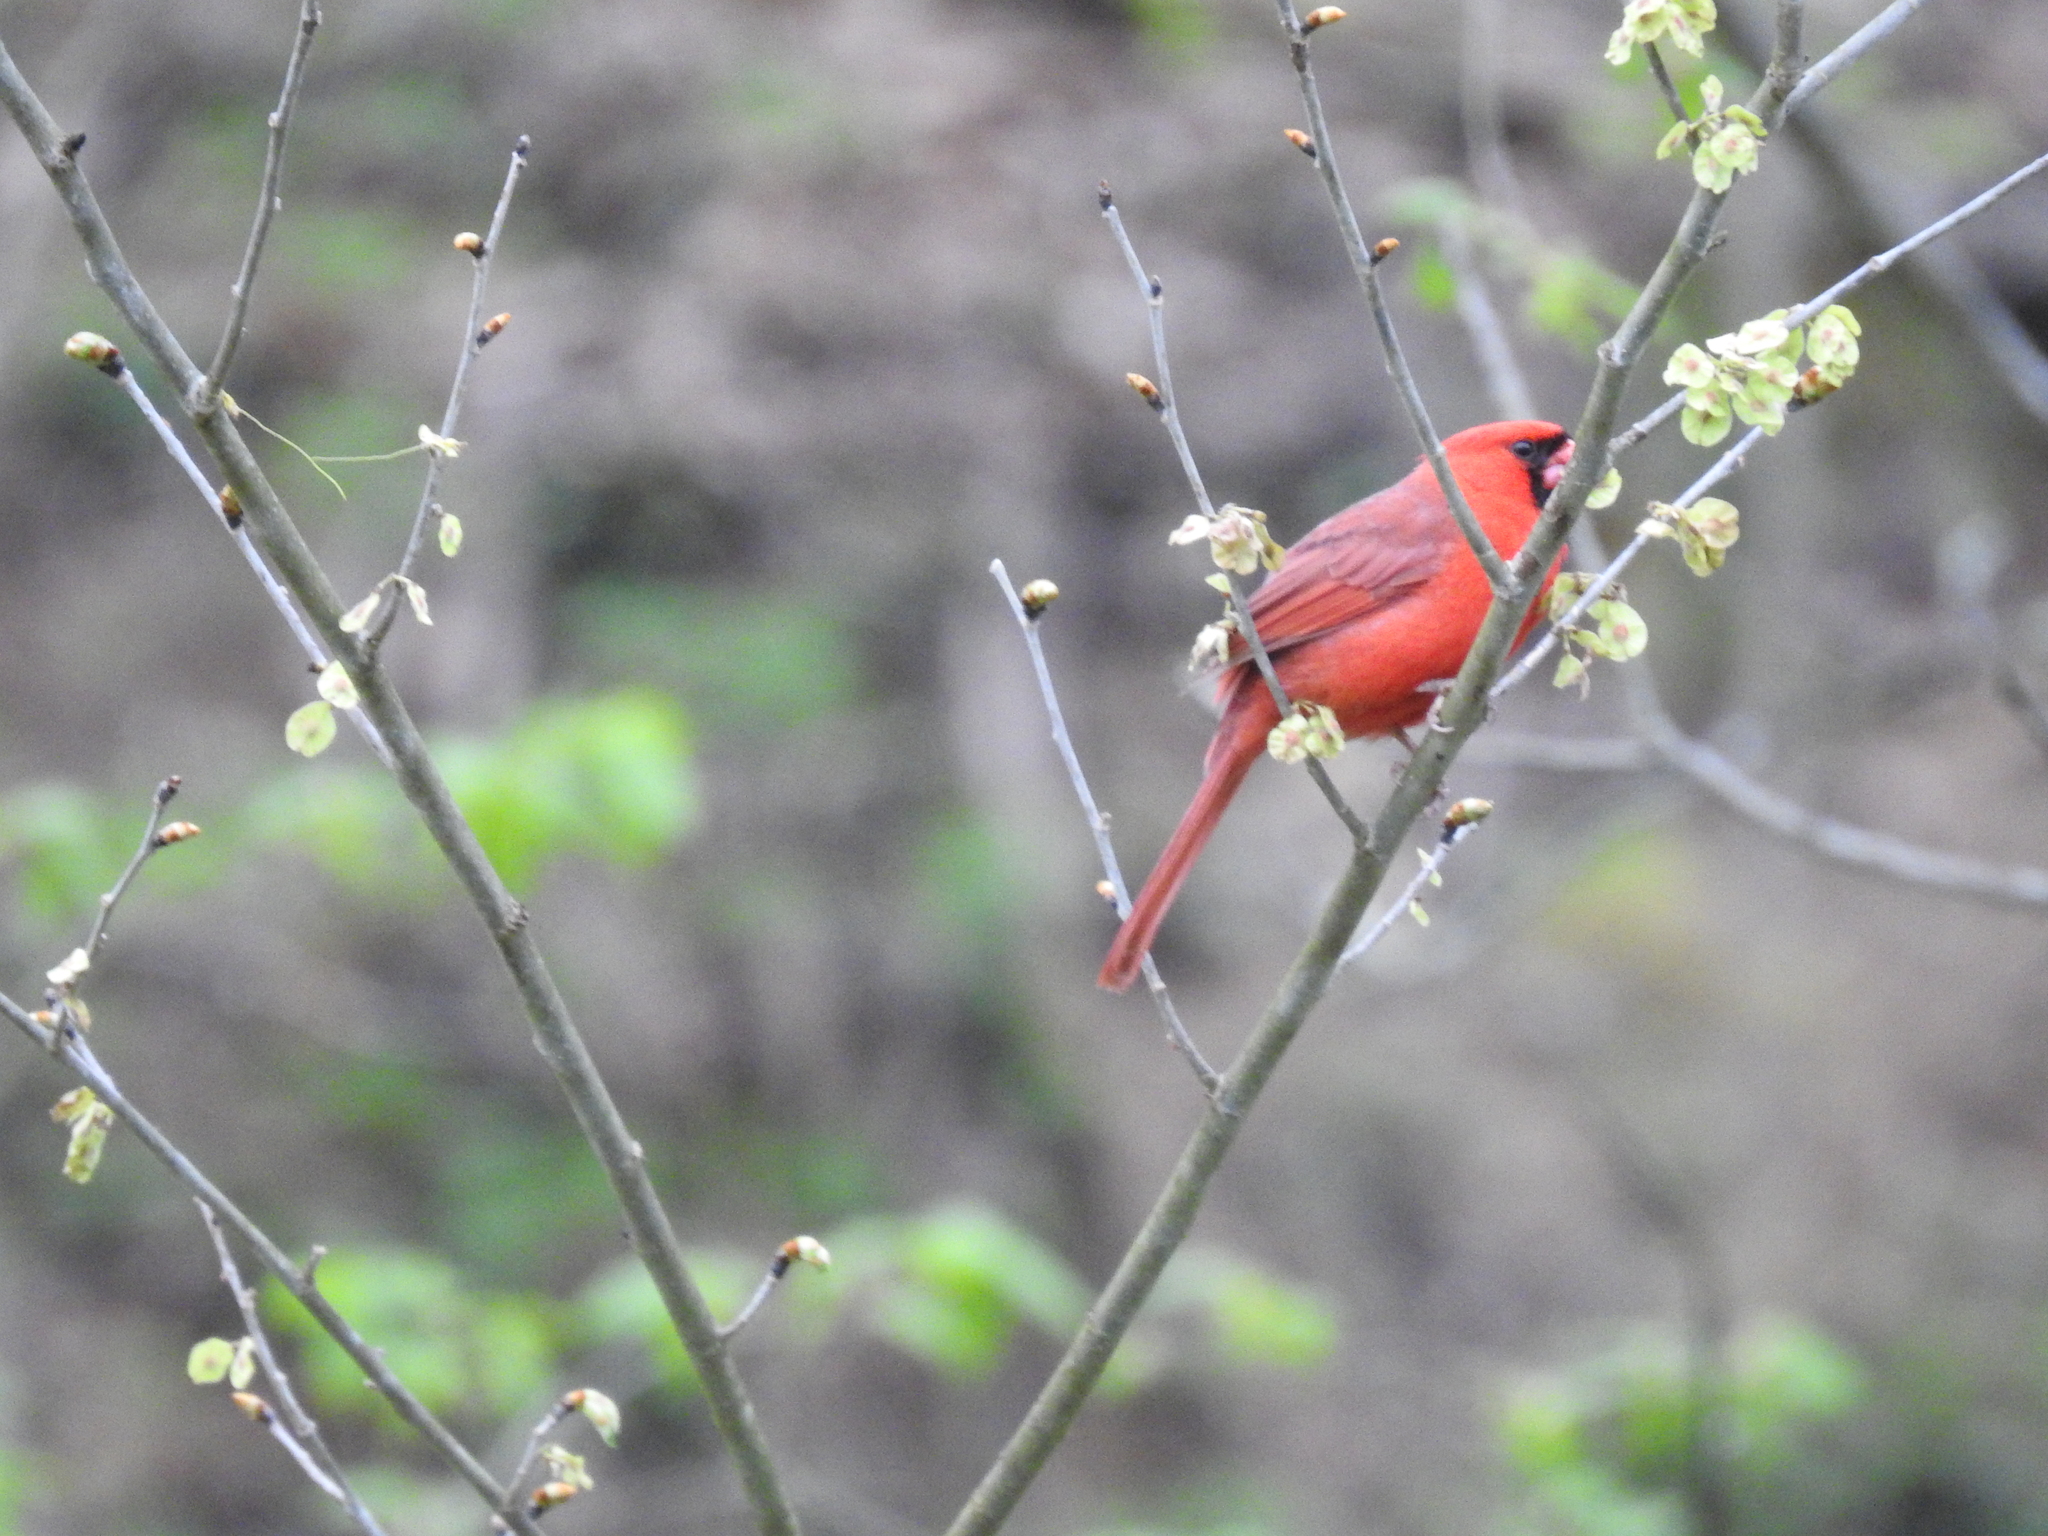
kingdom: Animalia
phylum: Chordata
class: Aves
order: Passeriformes
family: Cardinalidae
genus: Cardinalis
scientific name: Cardinalis cardinalis
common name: Northern cardinal
